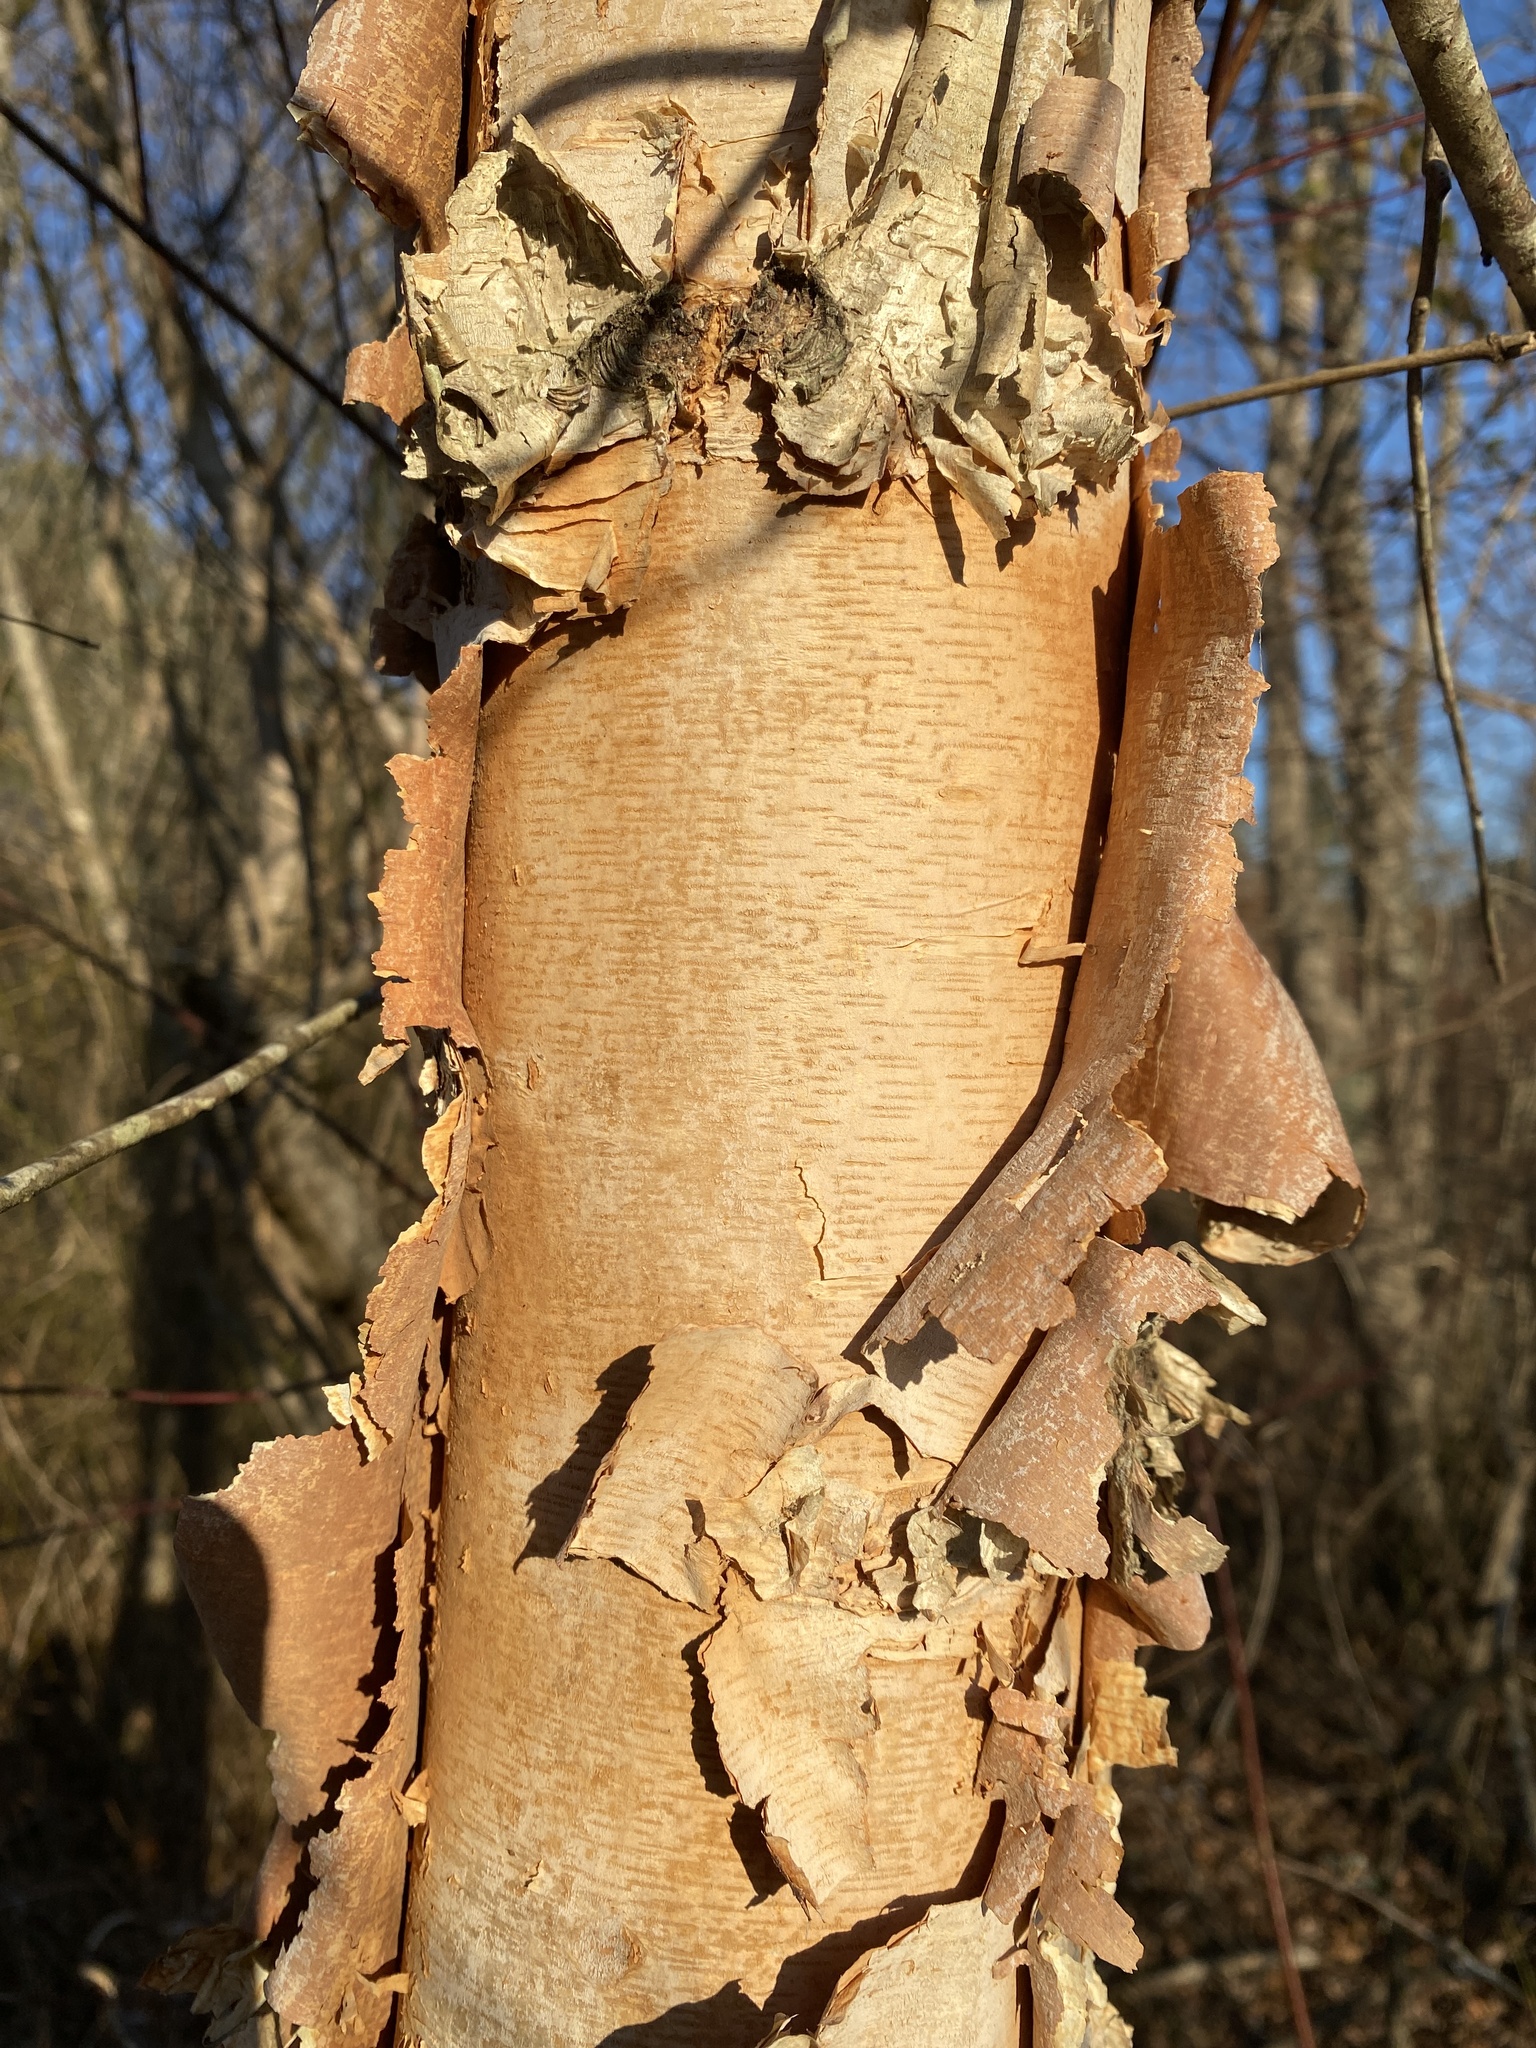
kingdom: Plantae
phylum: Tracheophyta
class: Magnoliopsida
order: Fagales
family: Betulaceae
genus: Betula
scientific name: Betula nigra
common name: Black birch
